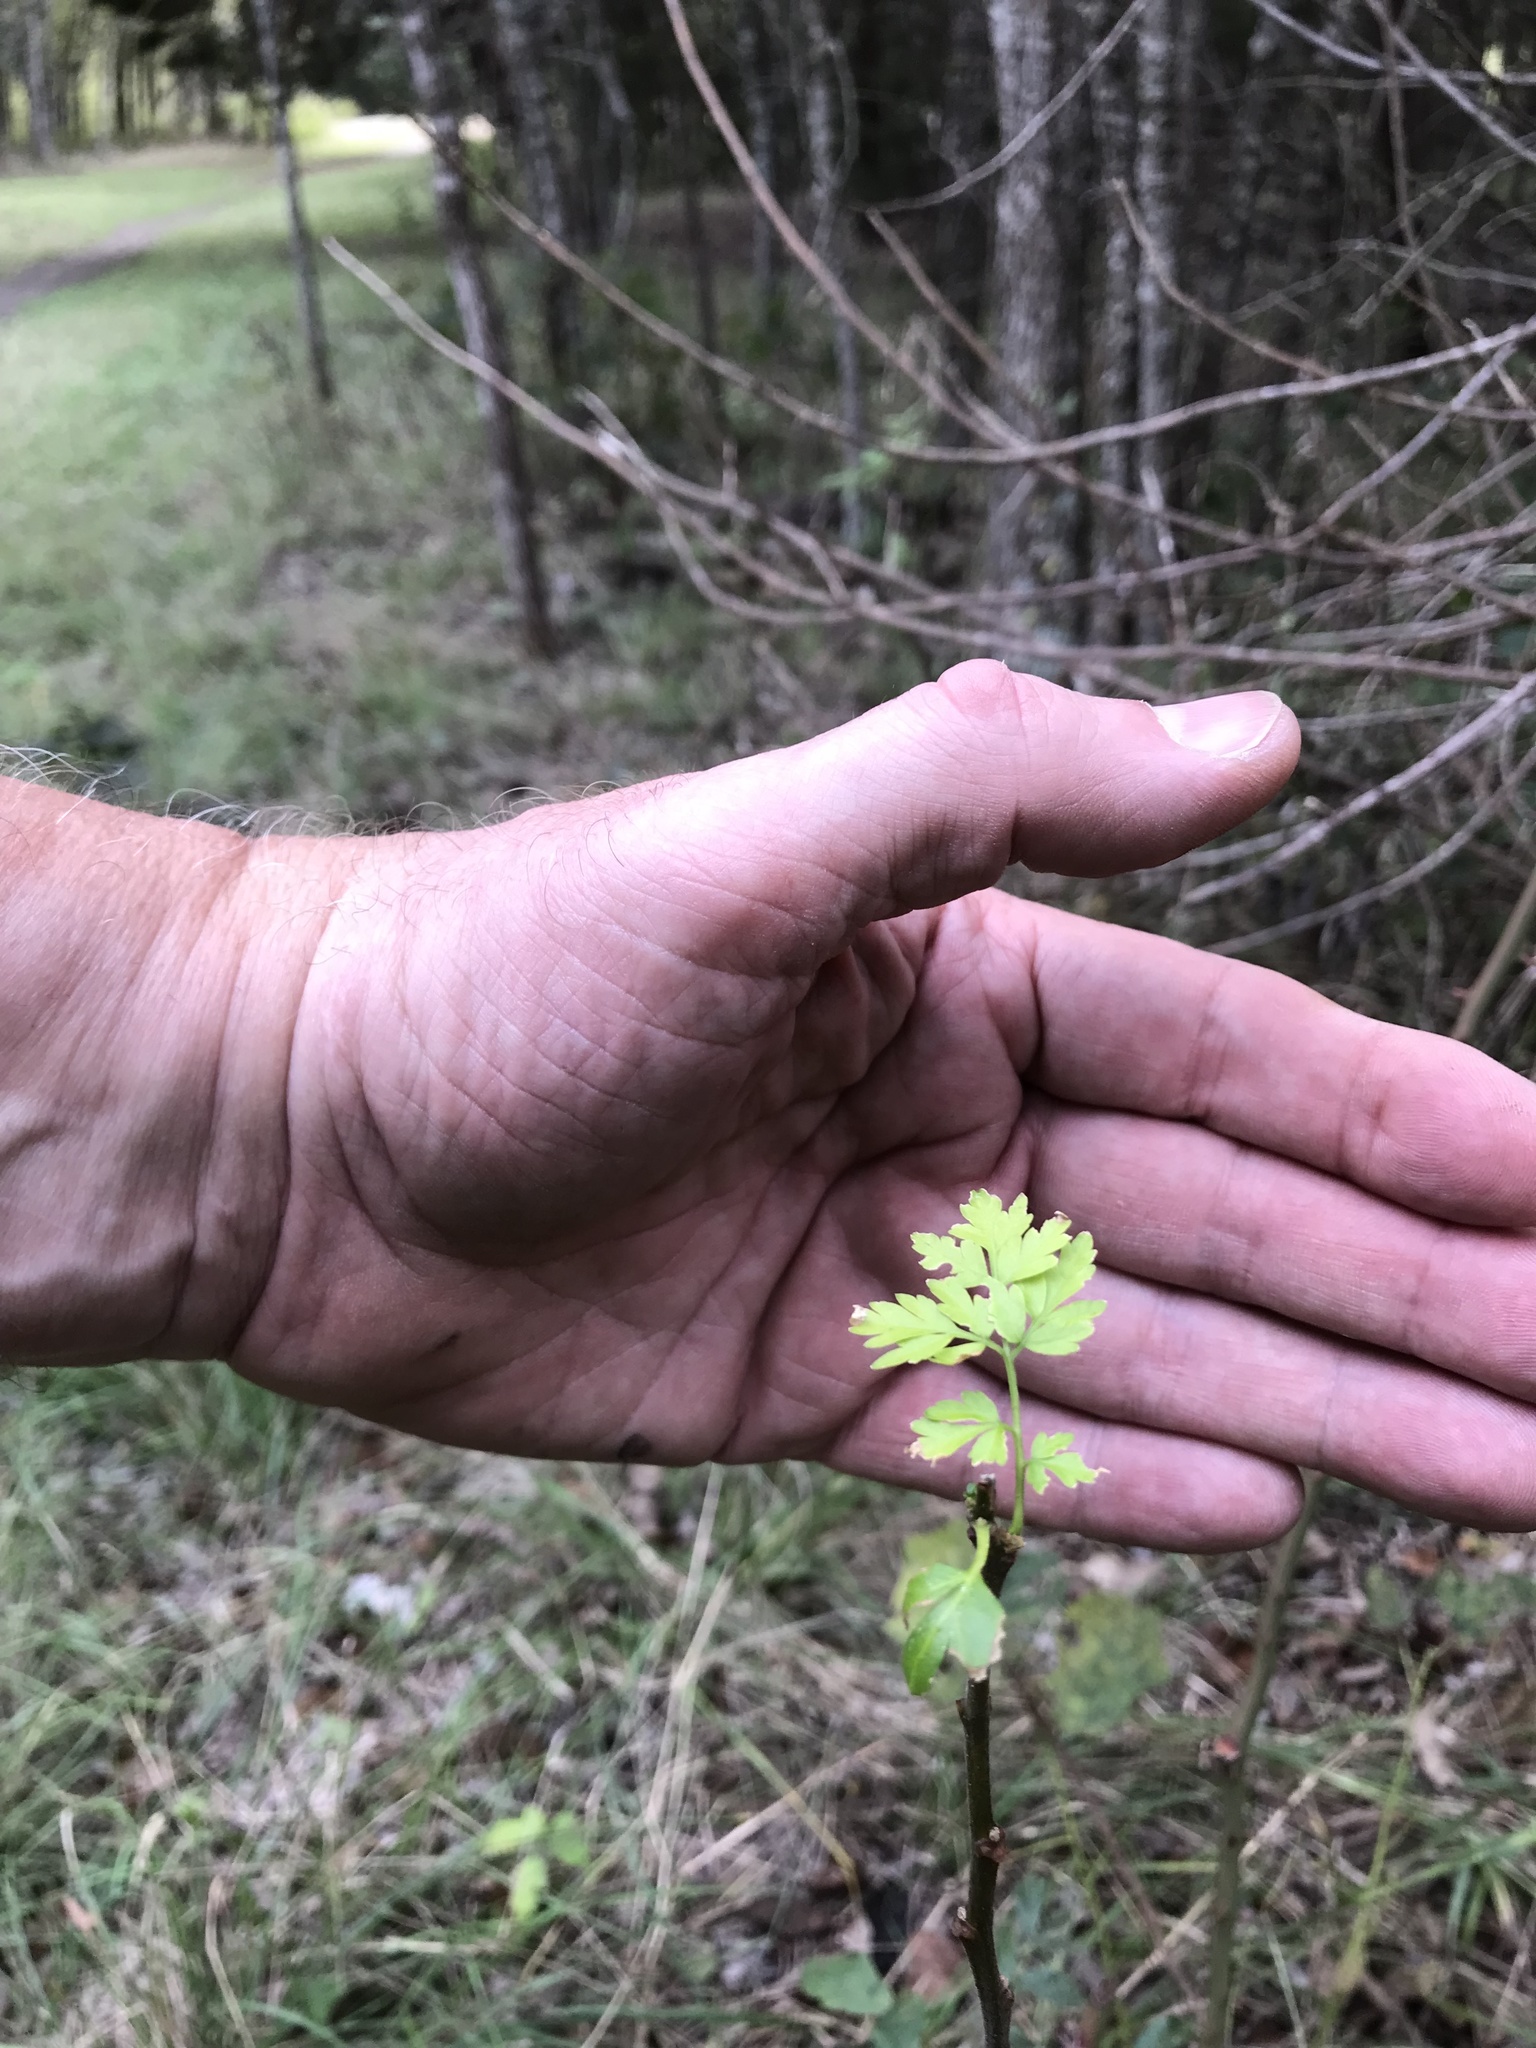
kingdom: Plantae
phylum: Tracheophyta
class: Magnoliopsida
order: Sapindales
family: Meliaceae
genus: Melia
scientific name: Melia azedarach
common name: Chinaberrytree
